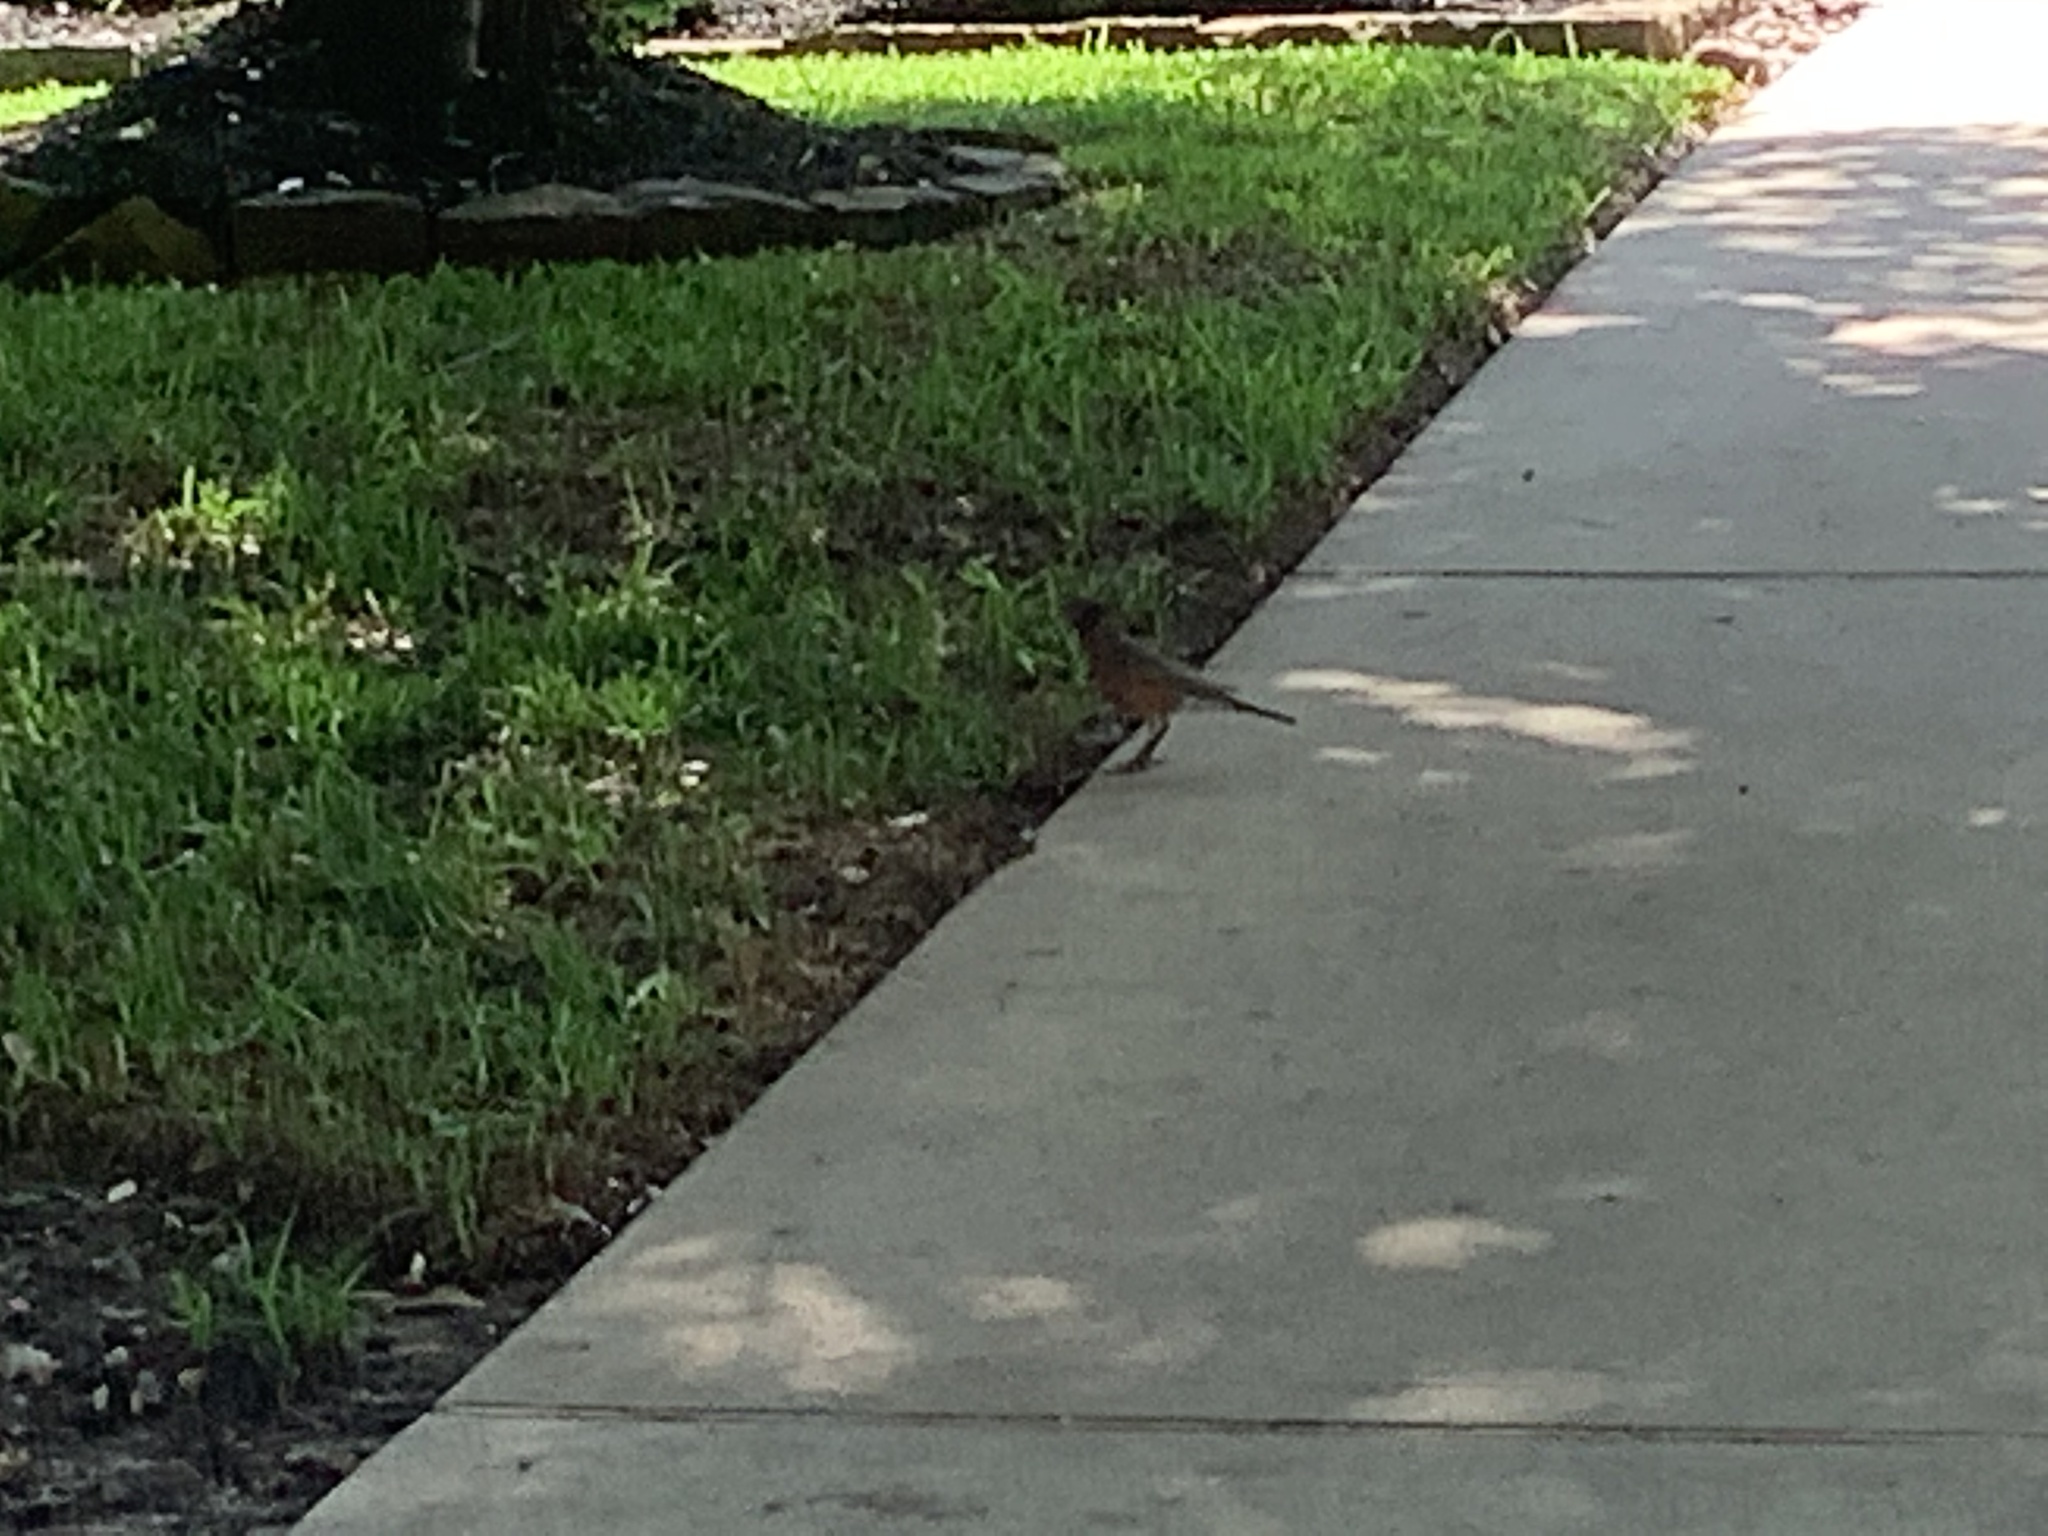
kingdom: Animalia
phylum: Chordata
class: Aves
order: Passeriformes
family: Turdidae
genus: Turdus
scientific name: Turdus migratorius
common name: American robin
